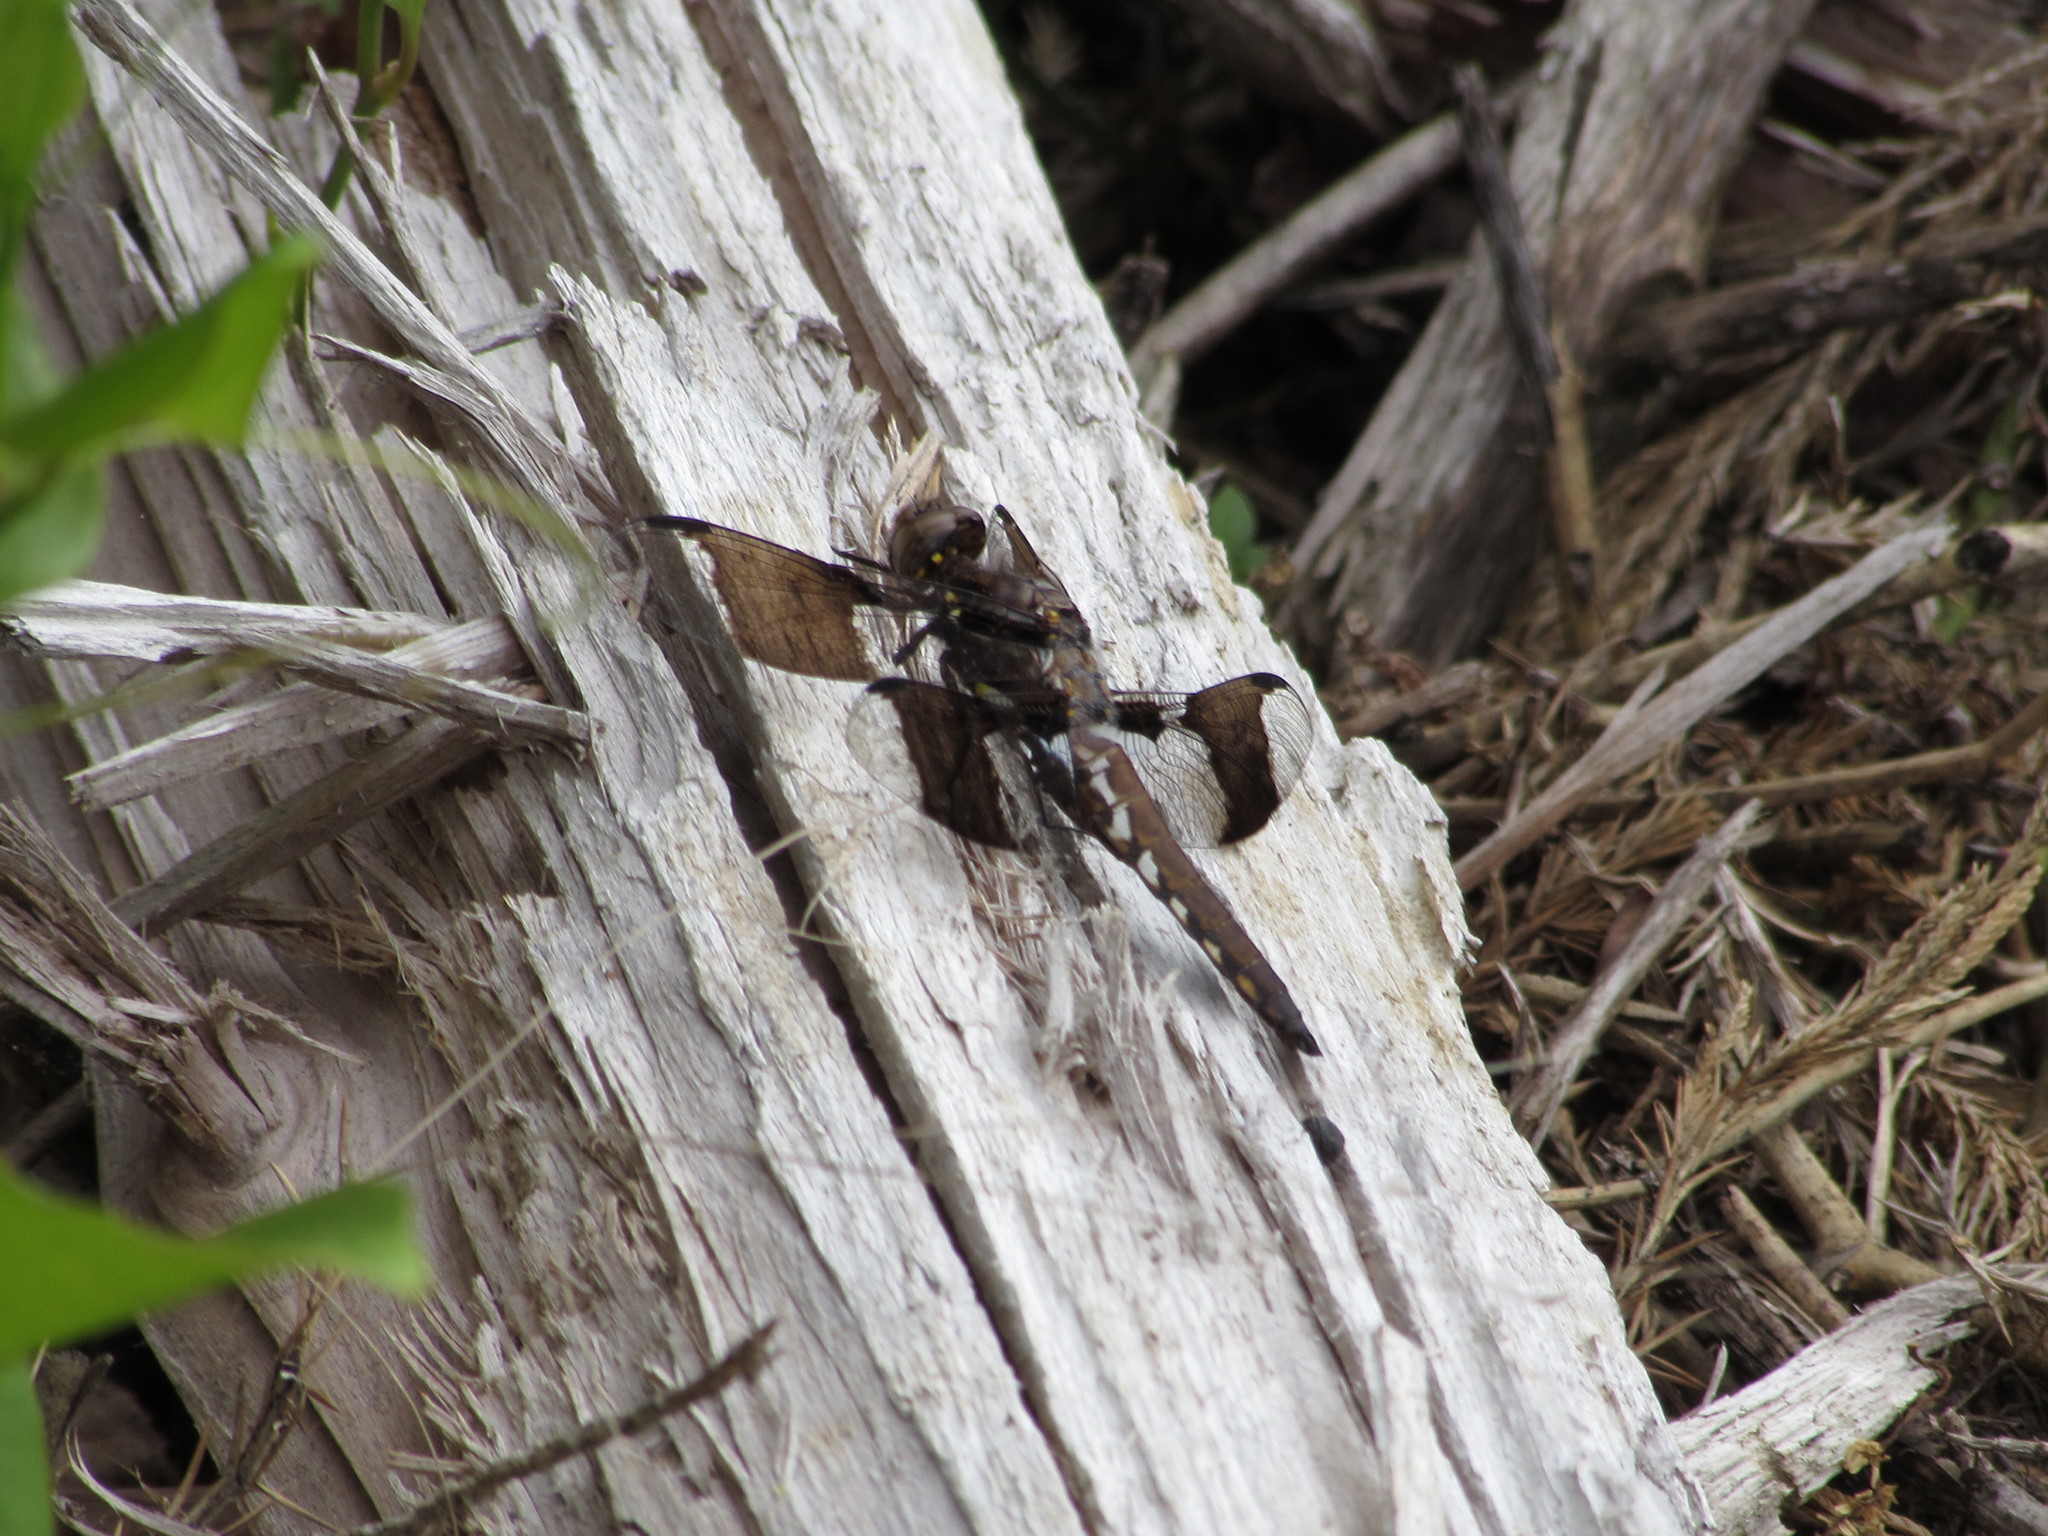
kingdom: Animalia
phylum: Arthropoda
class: Insecta
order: Odonata
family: Libellulidae
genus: Plathemis
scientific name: Plathemis lydia
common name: Common whitetail
